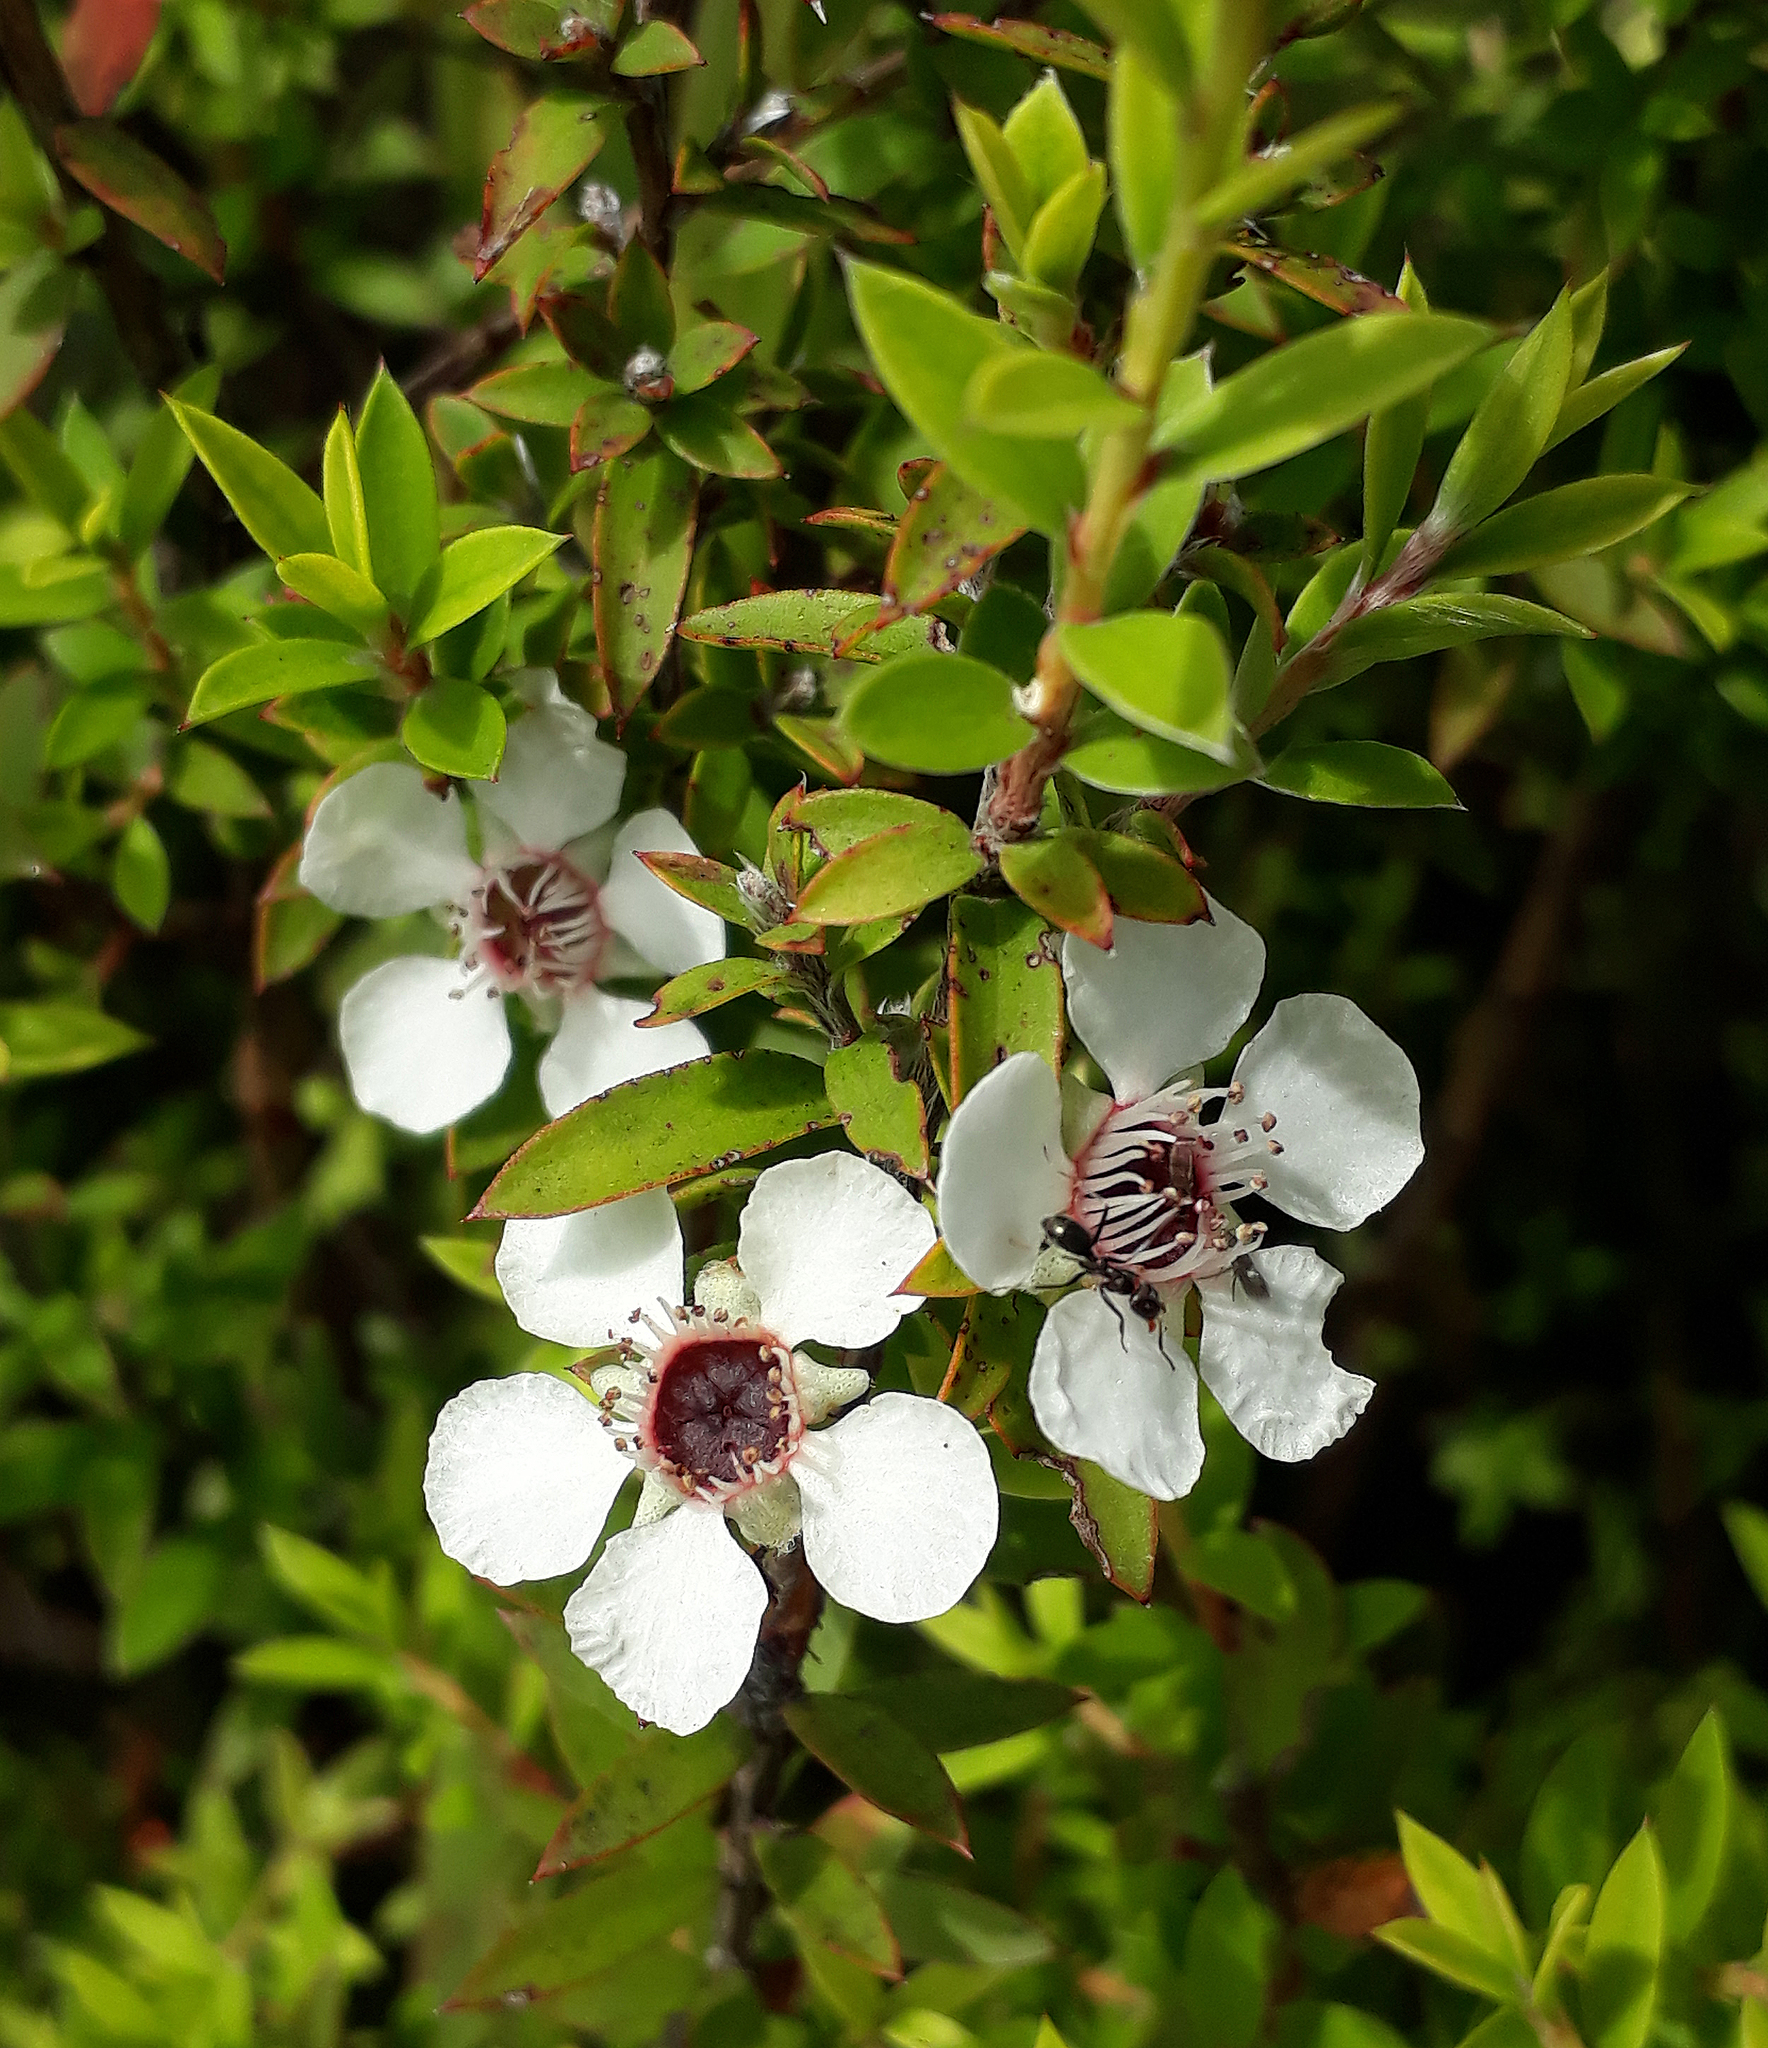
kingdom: Plantae
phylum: Tracheophyta
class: Magnoliopsida
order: Myrtales
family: Myrtaceae
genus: Leptospermum
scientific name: Leptospermum scoparium
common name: Broom tea-tree
